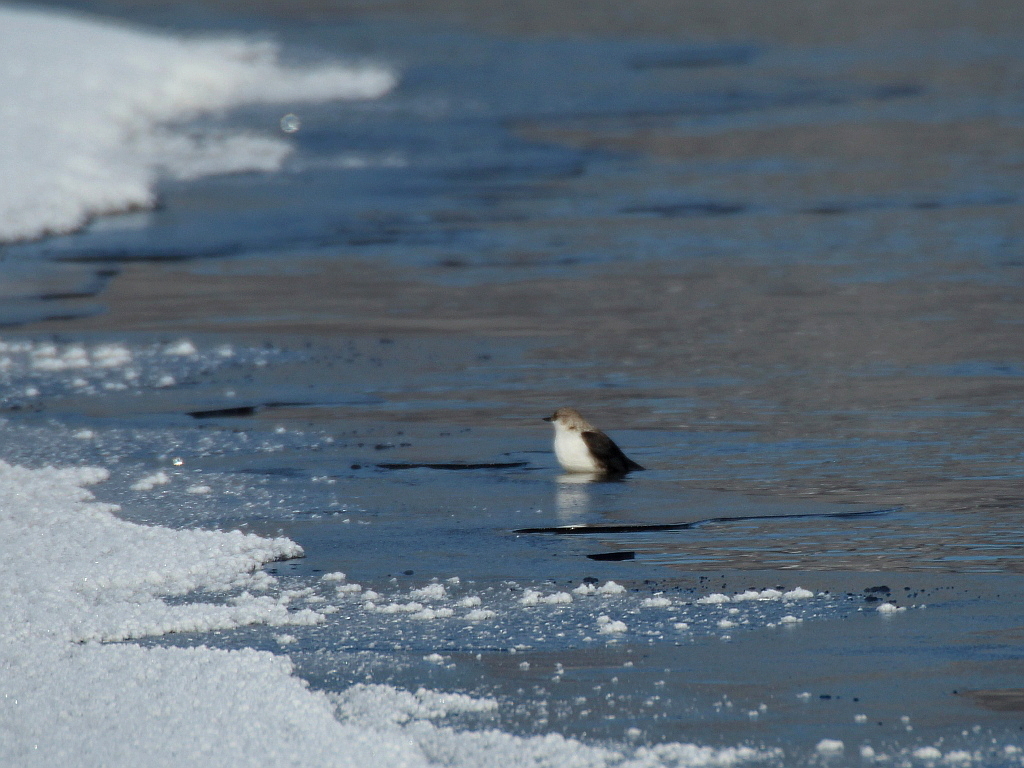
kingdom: Animalia
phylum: Chordata
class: Aves
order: Passeriformes
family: Cinclidae
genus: Cinclus
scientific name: Cinclus cinclus
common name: White-throated dipper
